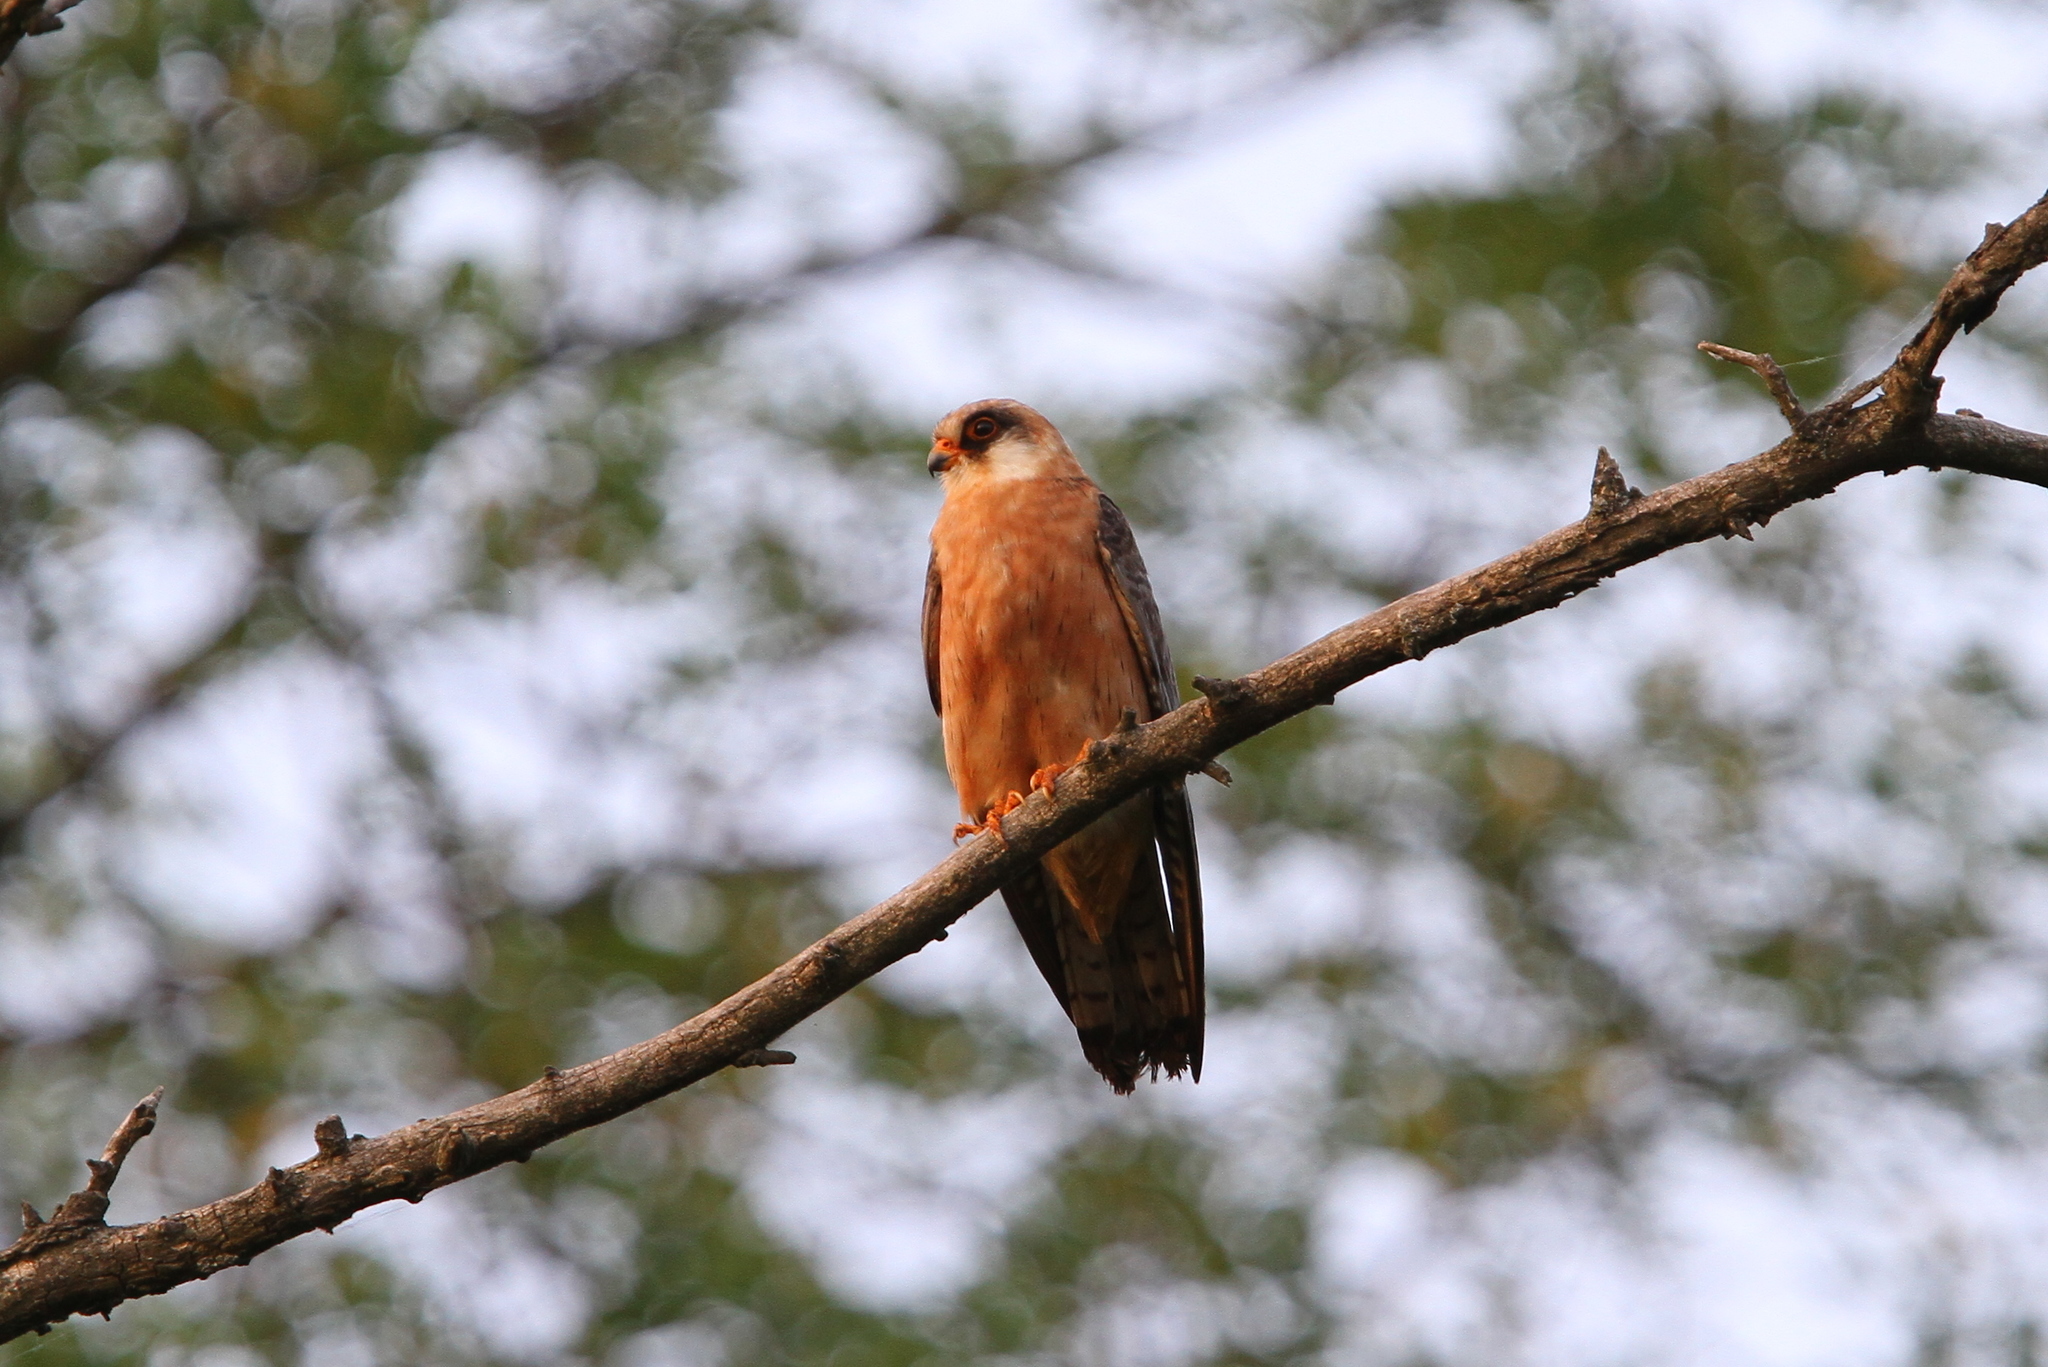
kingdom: Animalia
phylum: Chordata
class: Aves
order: Falconiformes
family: Falconidae
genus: Falco
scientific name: Falco vespertinus
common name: Red-footed falcon
